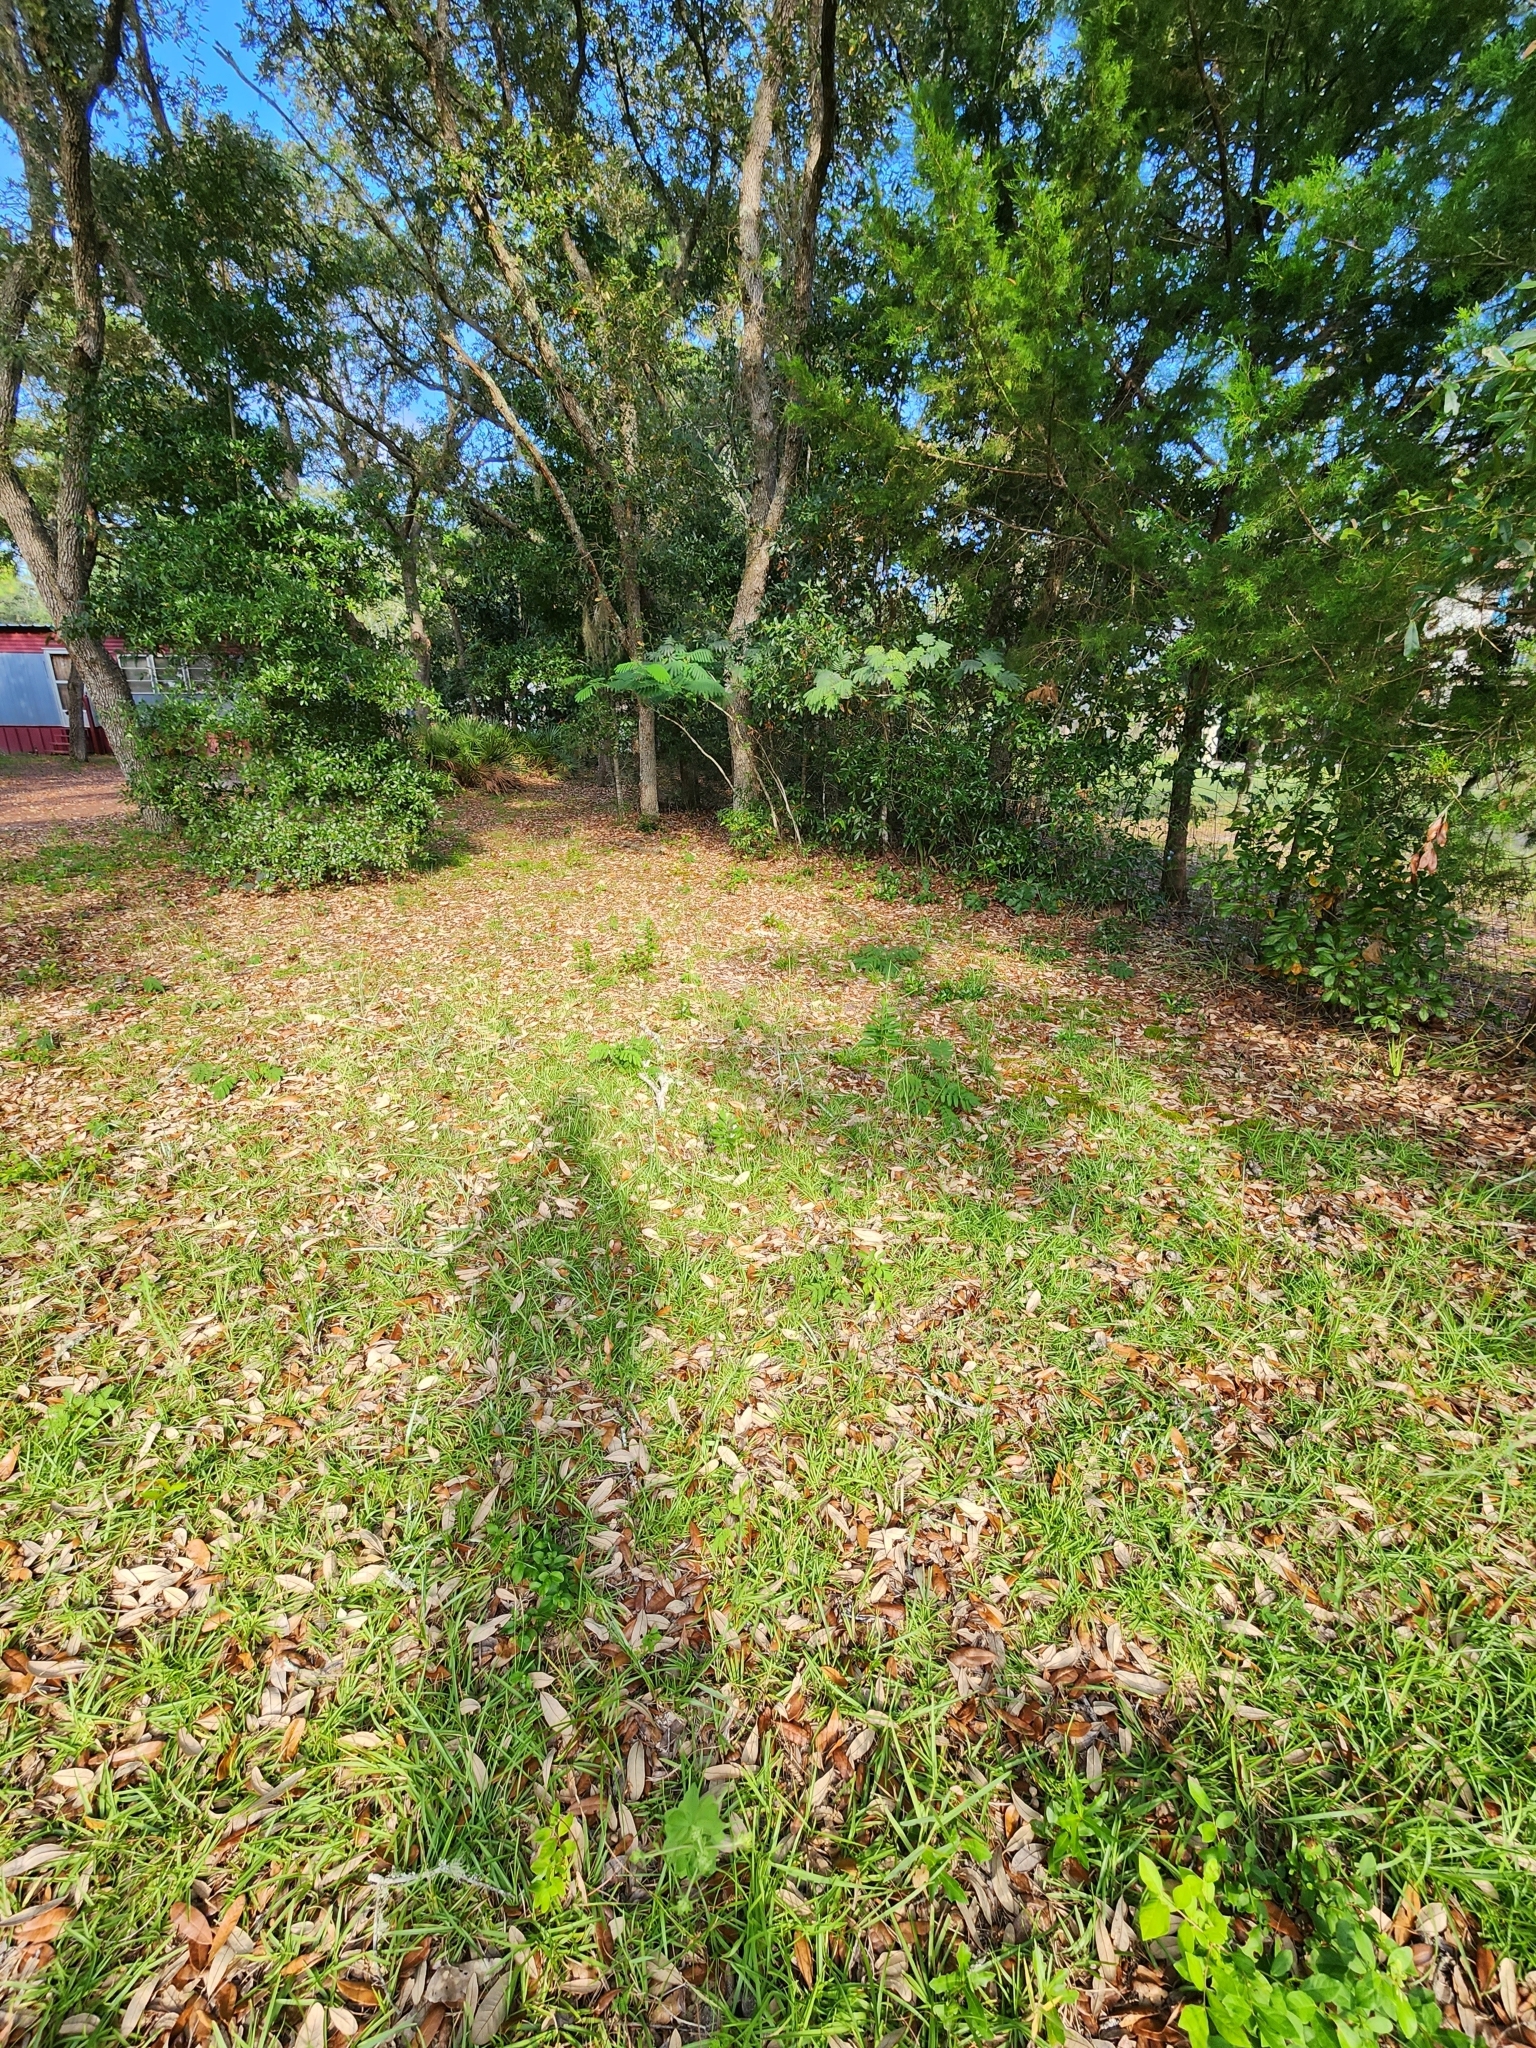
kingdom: Plantae
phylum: Tracheophyta
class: Magnoliopsida
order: Gentianales
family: Apocynaceae
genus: Asclepias
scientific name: Asclepias tomentosa
